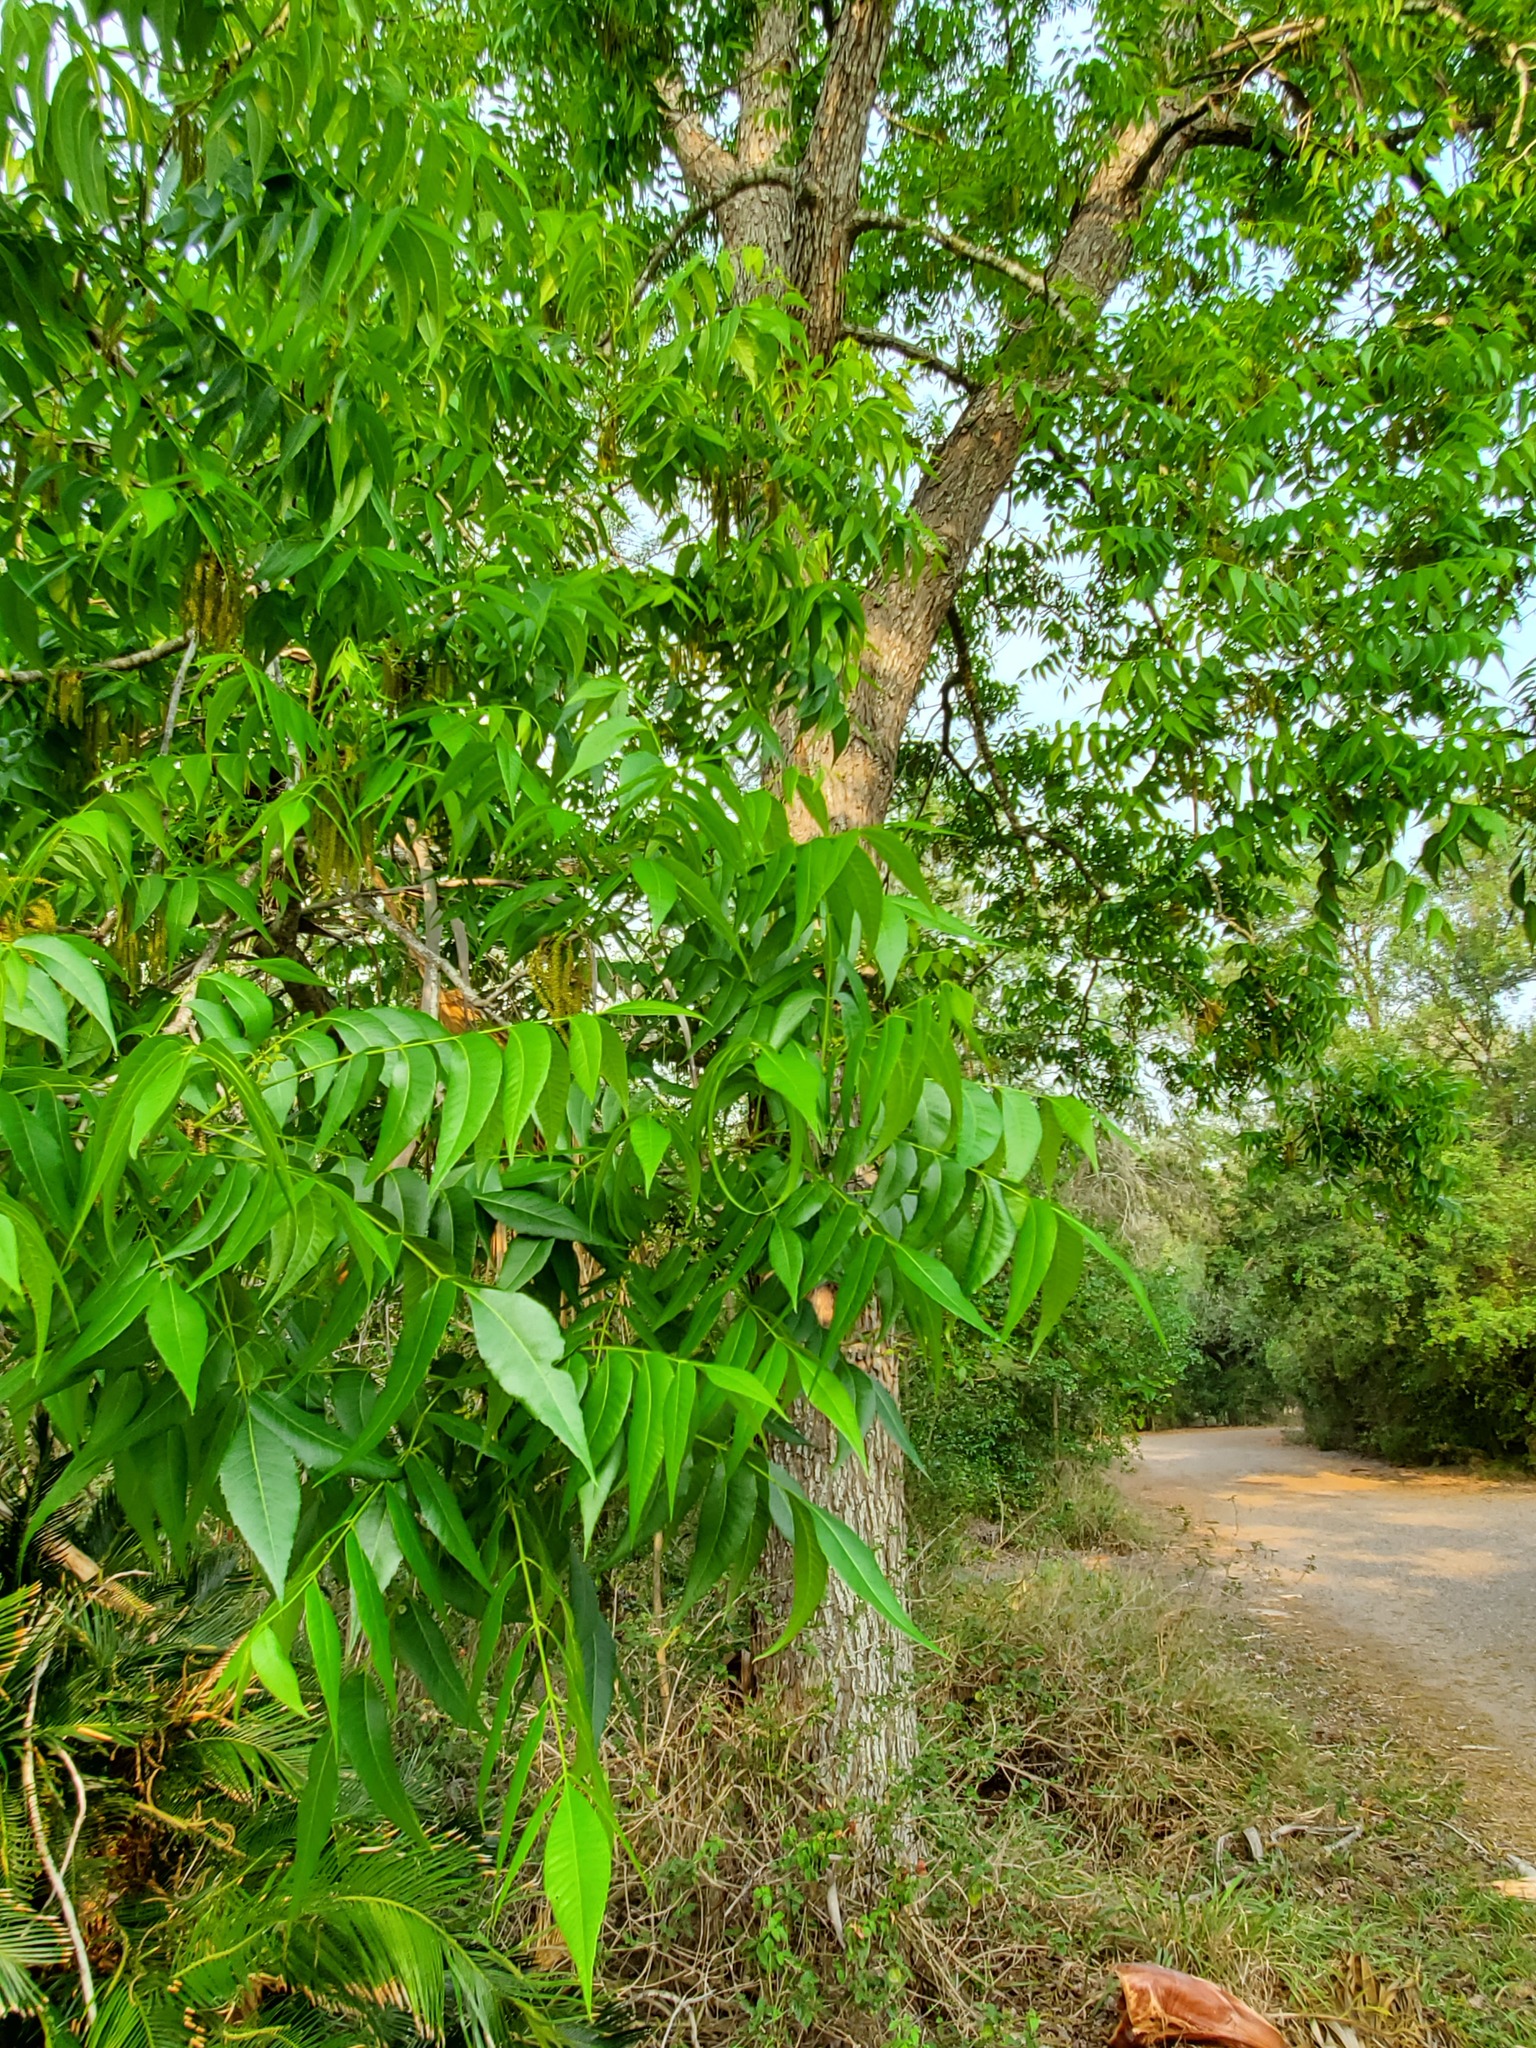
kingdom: Plantae
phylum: Tracheophyta
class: Magnoliopsida
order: Sapindales
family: Sapindaceae
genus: Sapindus
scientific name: Sapindus drummondii
